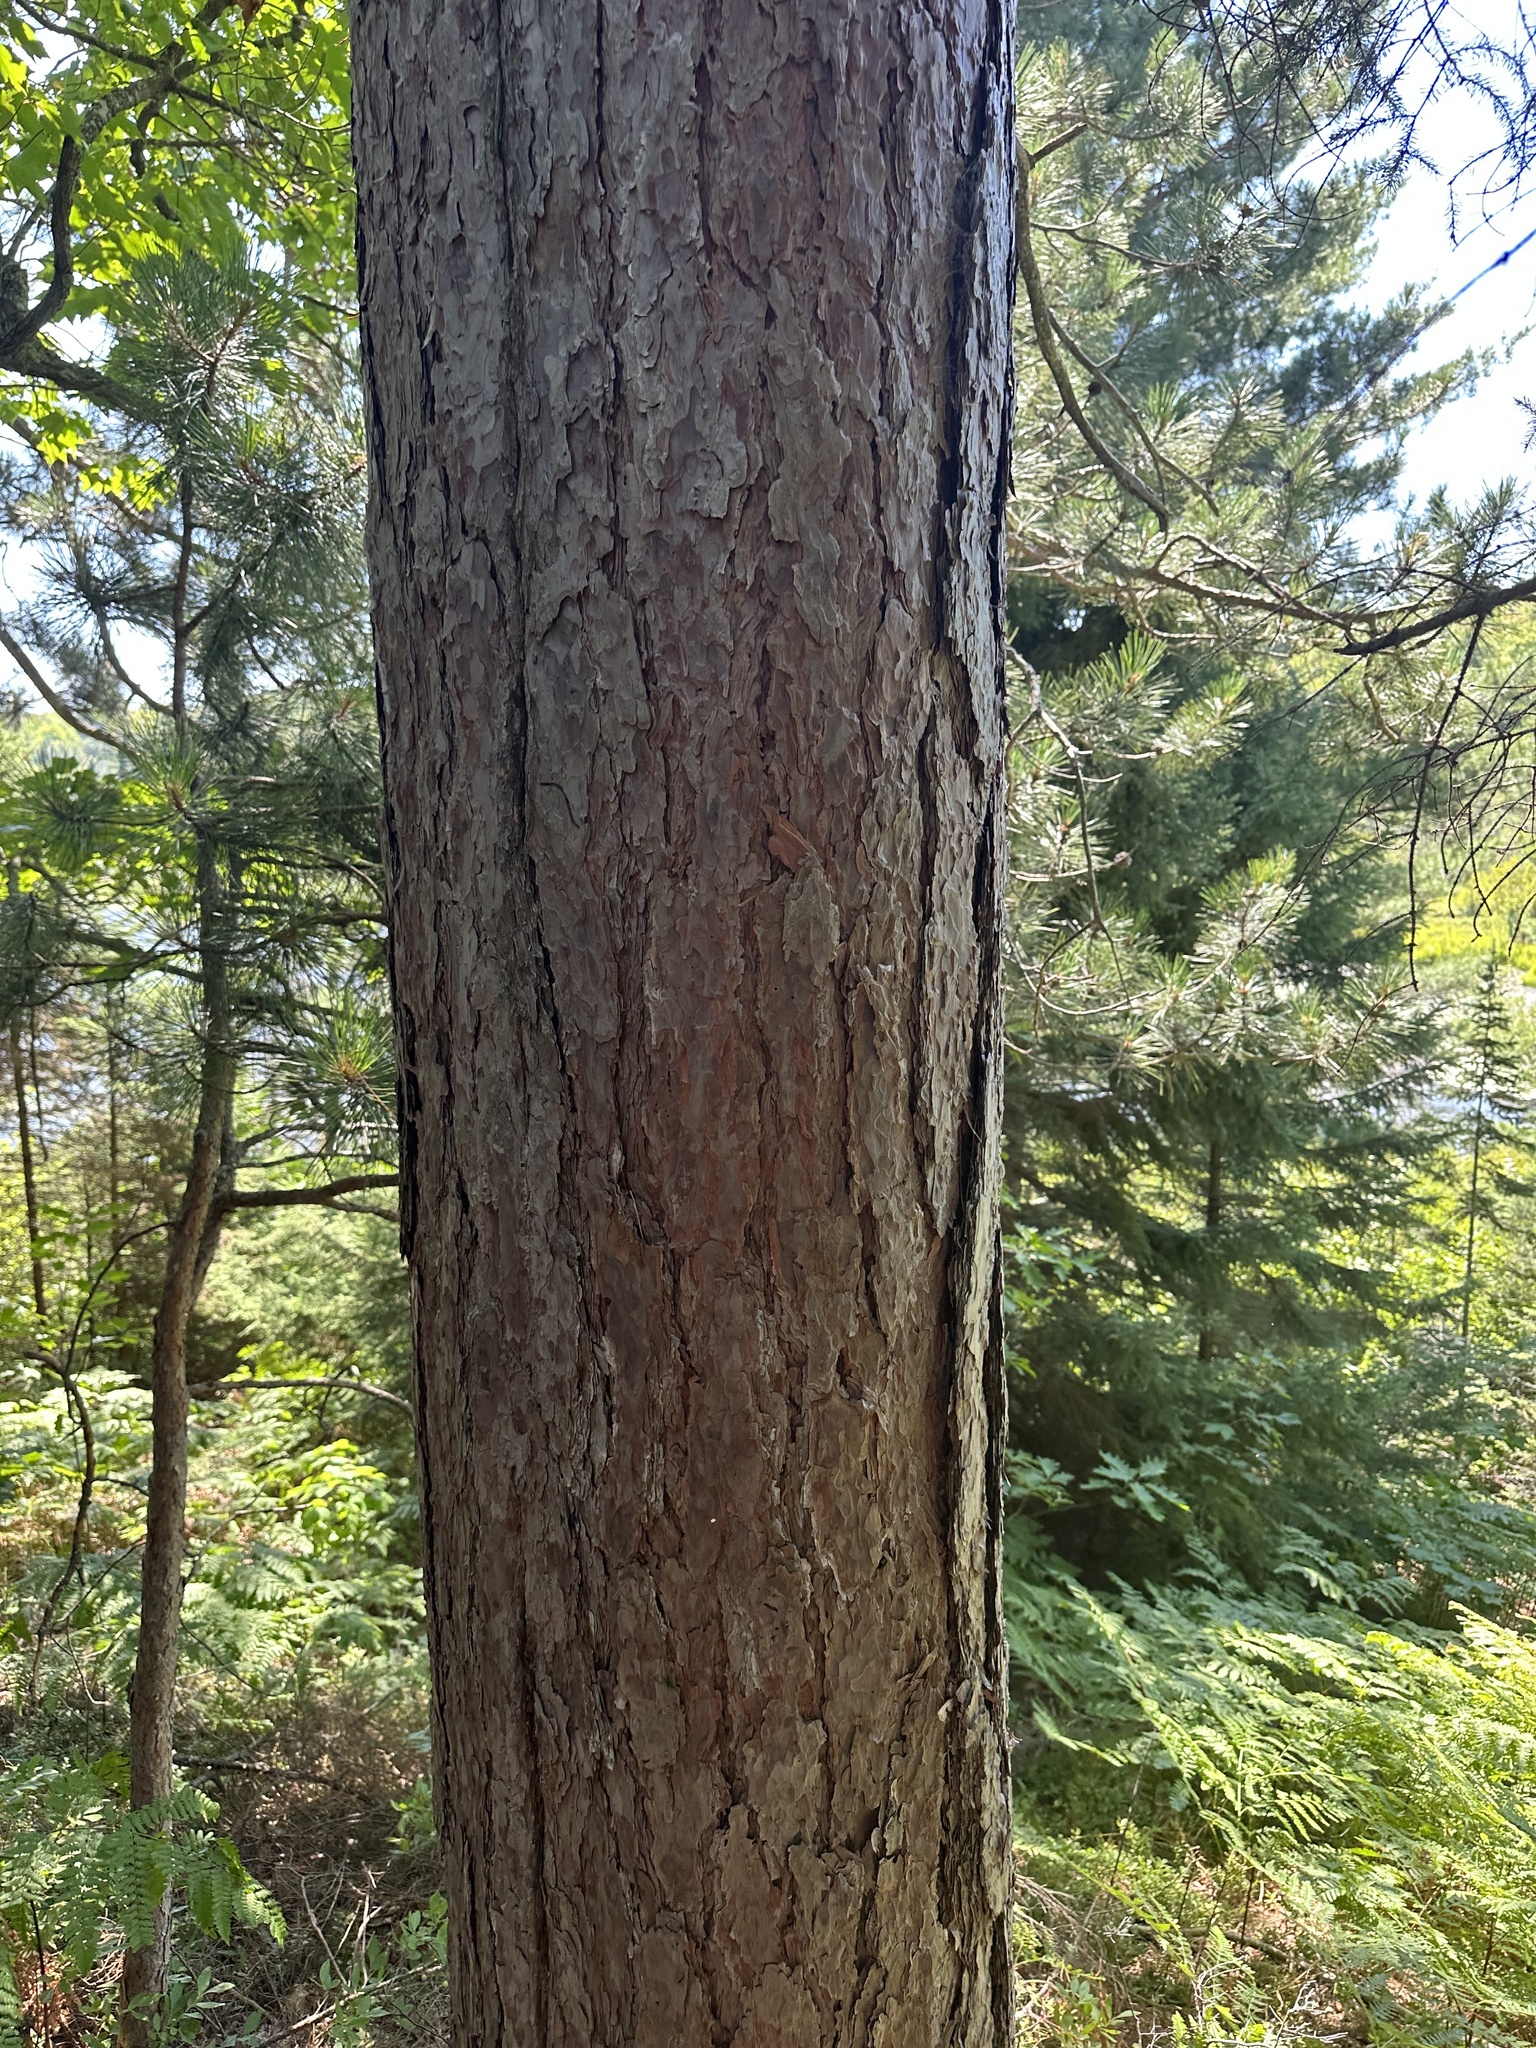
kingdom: Plantae
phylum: Tracheophyta
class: Pinopsida
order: Pinales
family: Pinaceae
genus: Pinus
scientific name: Pinus resinosa
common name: Norway pine
